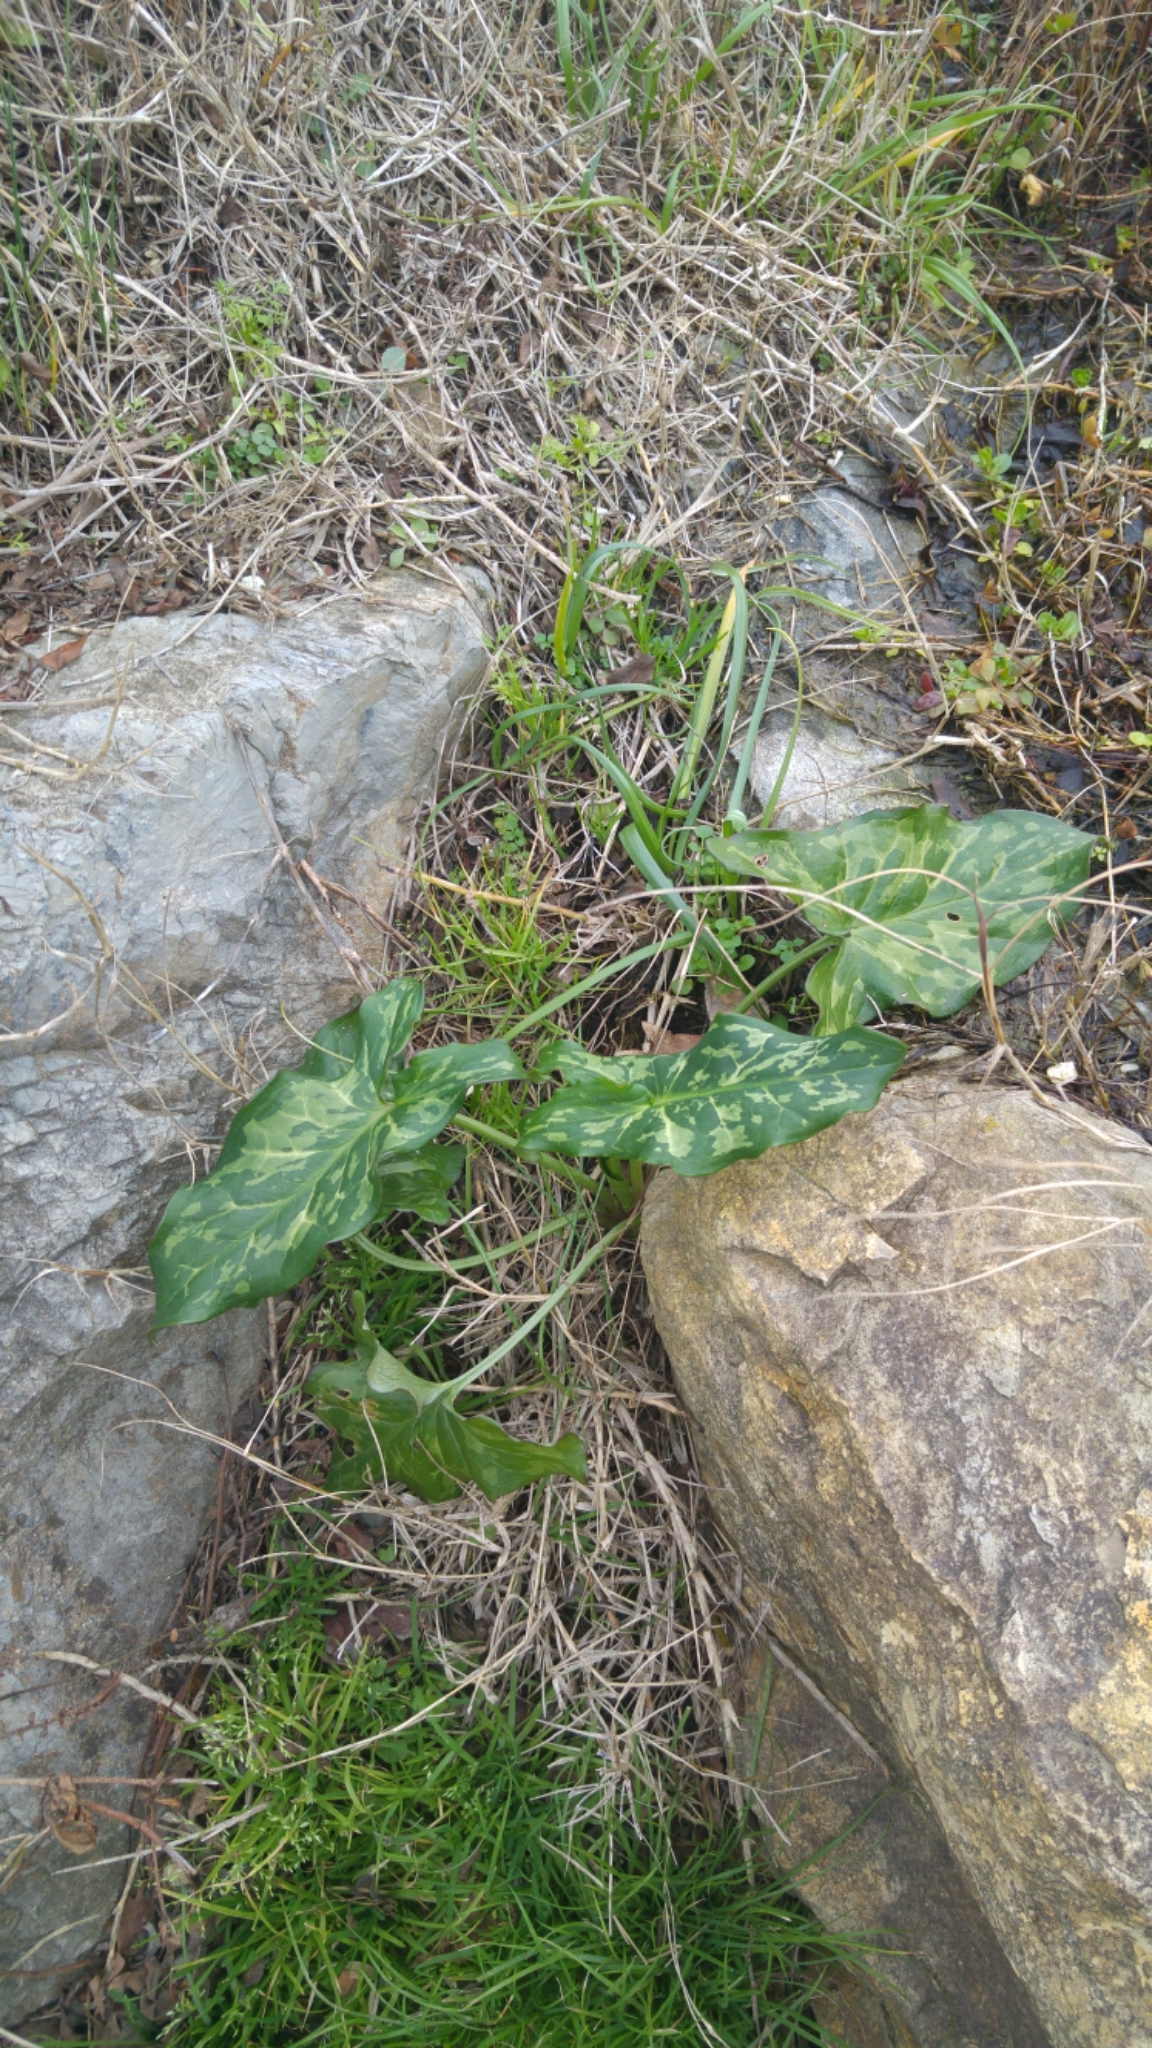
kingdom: Plantae
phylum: Tracheophyta
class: Liliopsida
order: Alismatales
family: Araceae
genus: Arum
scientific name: Arum italicum
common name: Italian lords-and-ladies
